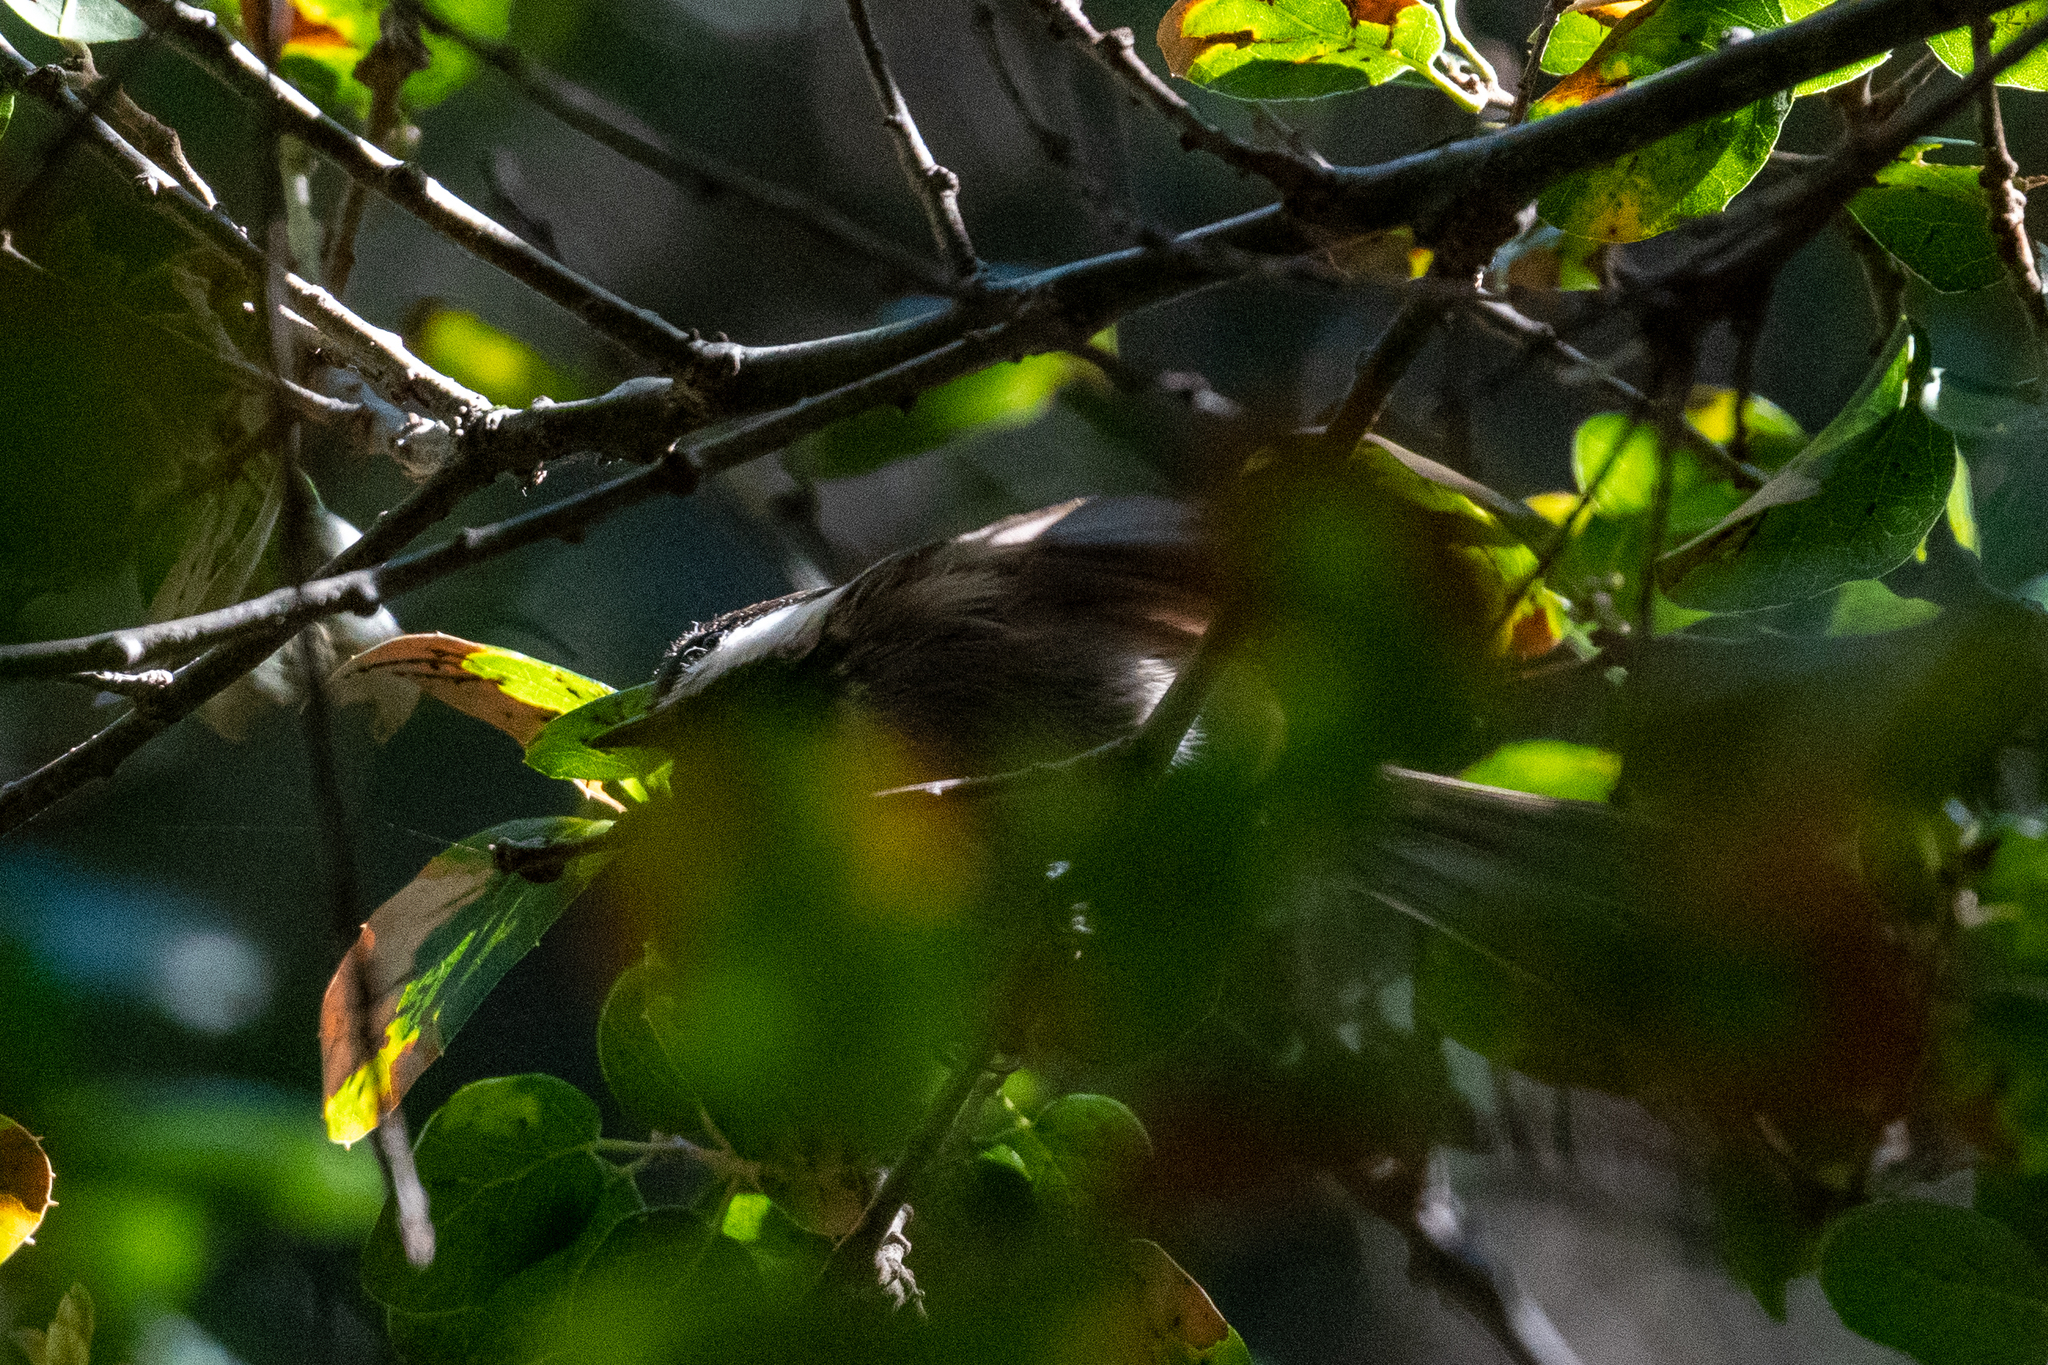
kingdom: Animalia
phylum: Chordata
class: Aves
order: Passeriformes
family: Paridae
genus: Poecile
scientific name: Poecile rufescens
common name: Chestnut-backed chickadee
